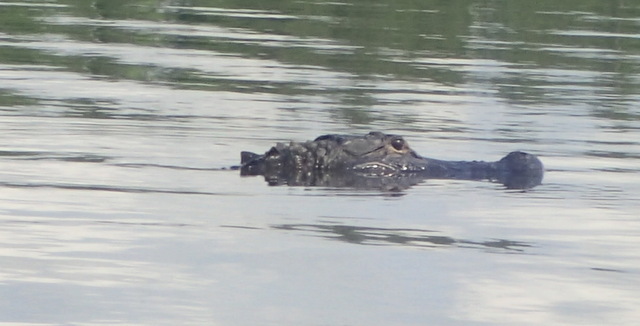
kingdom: Animalia
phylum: Chordata
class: Crocodylia
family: Alligatoridae
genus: Alligator
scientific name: Alligator mississippiensis
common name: American alligator
